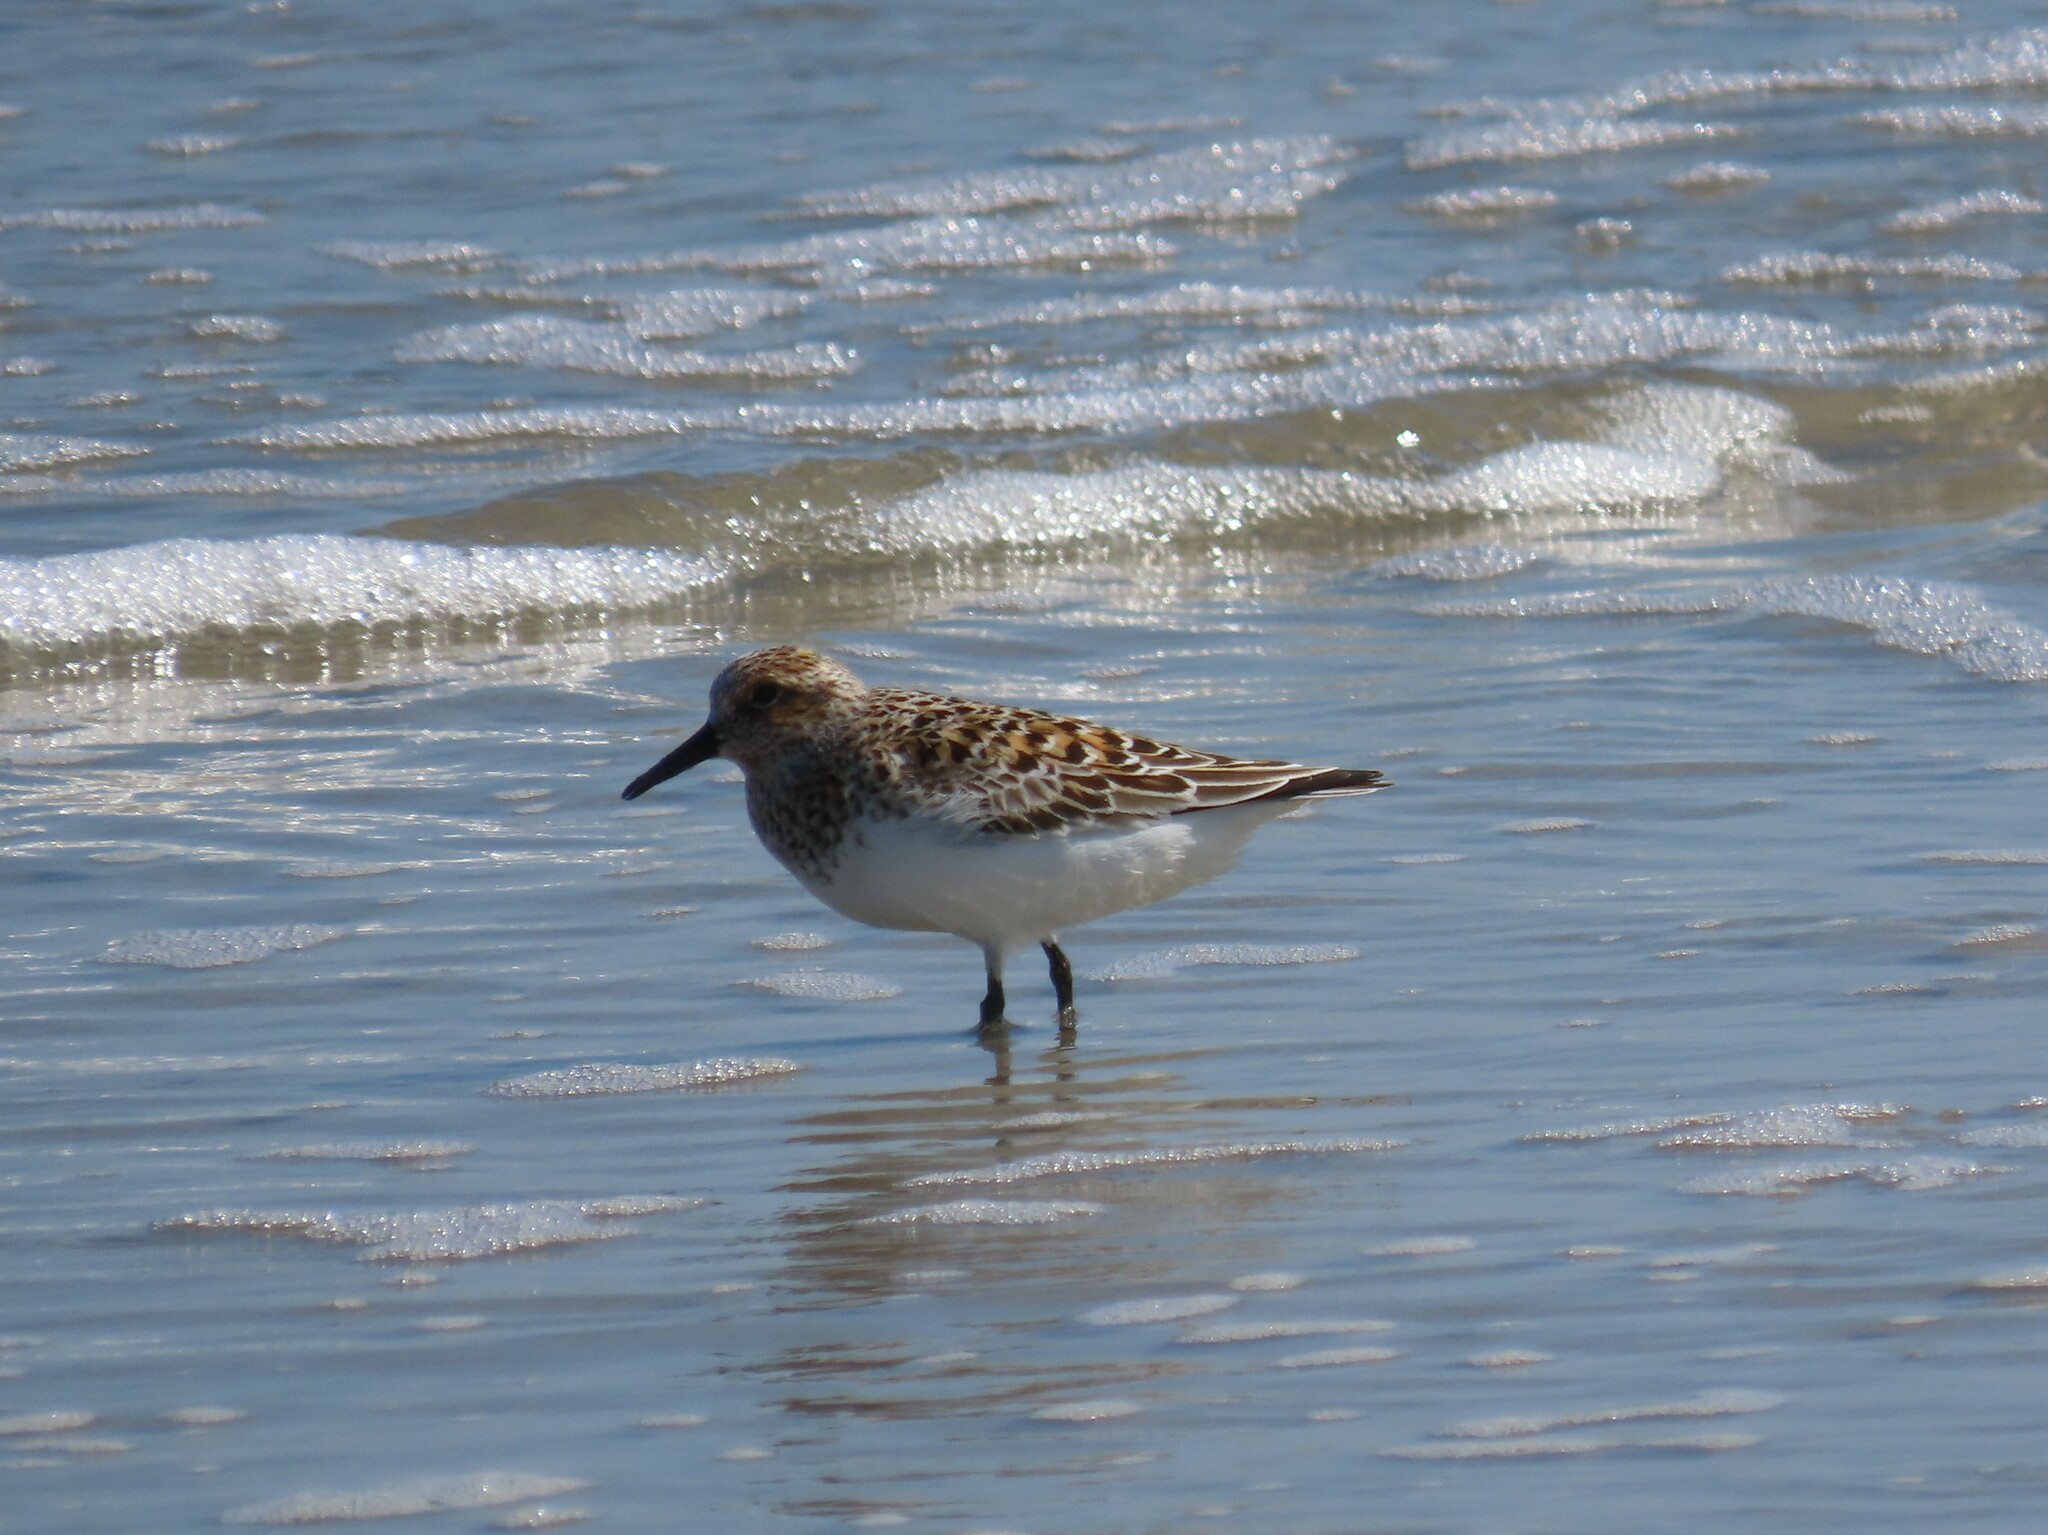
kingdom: Animalia
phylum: Chordata
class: Aves
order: Charadriiformes
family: Scolopacidae
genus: Calidris
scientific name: Calidris alba
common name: Sanderling
